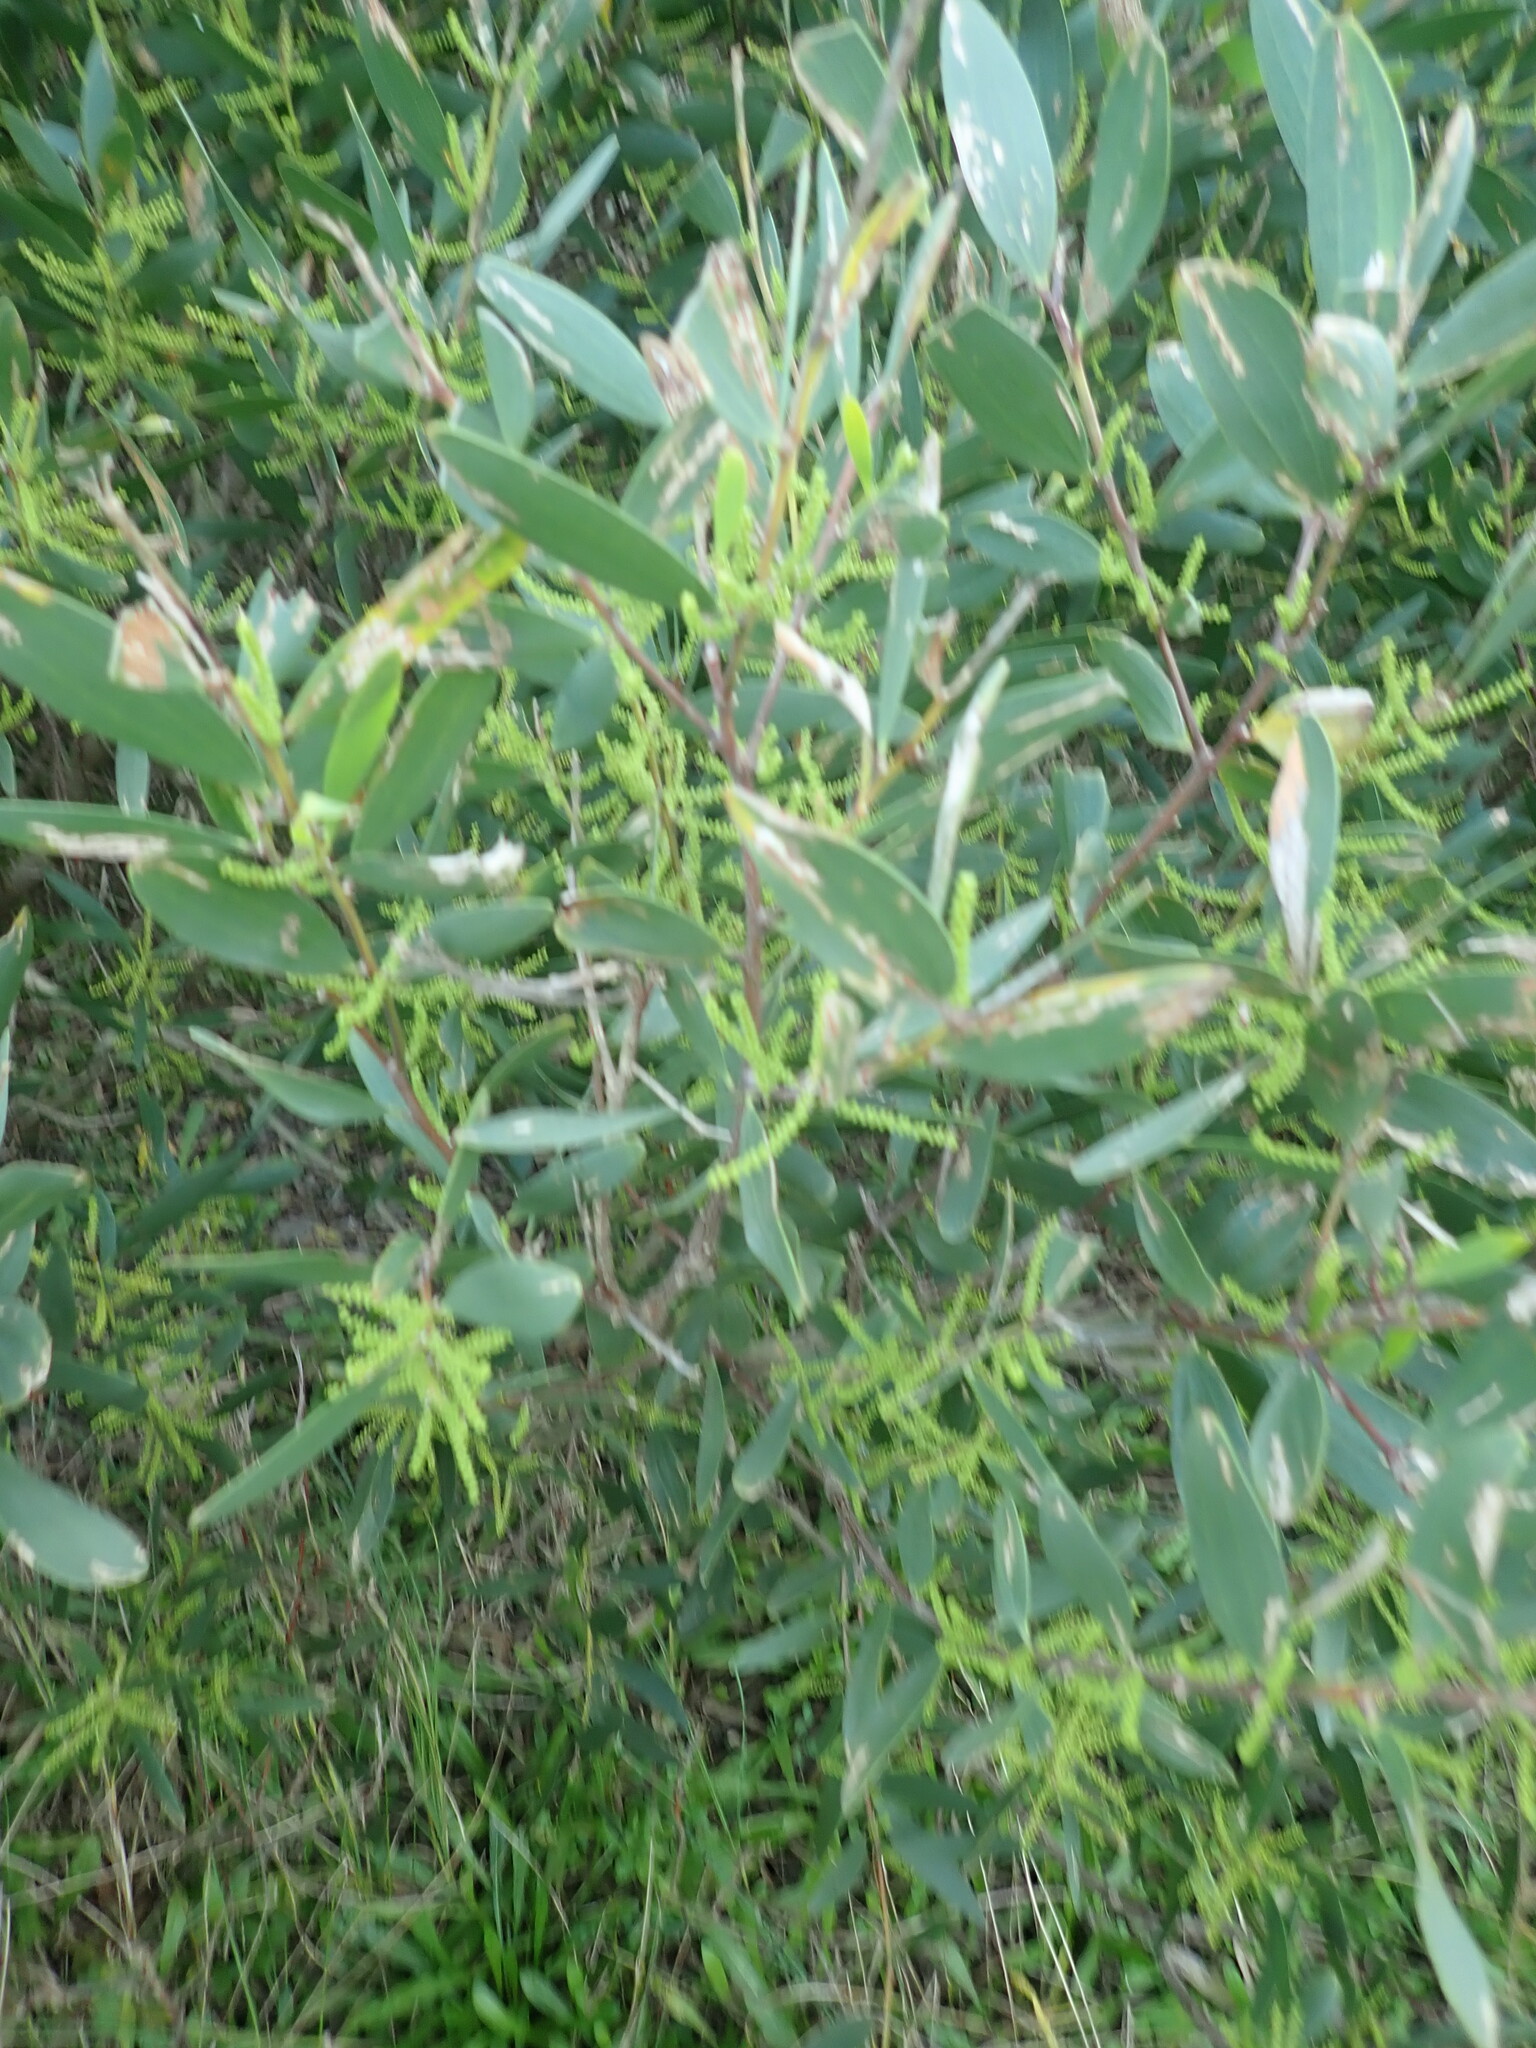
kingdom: Plantae
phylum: Tracheophyta
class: Magnoliopsida
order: Fabales
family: Fabaceae
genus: Acacia
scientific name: Acacia longifolia
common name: Sydney golden wattle
